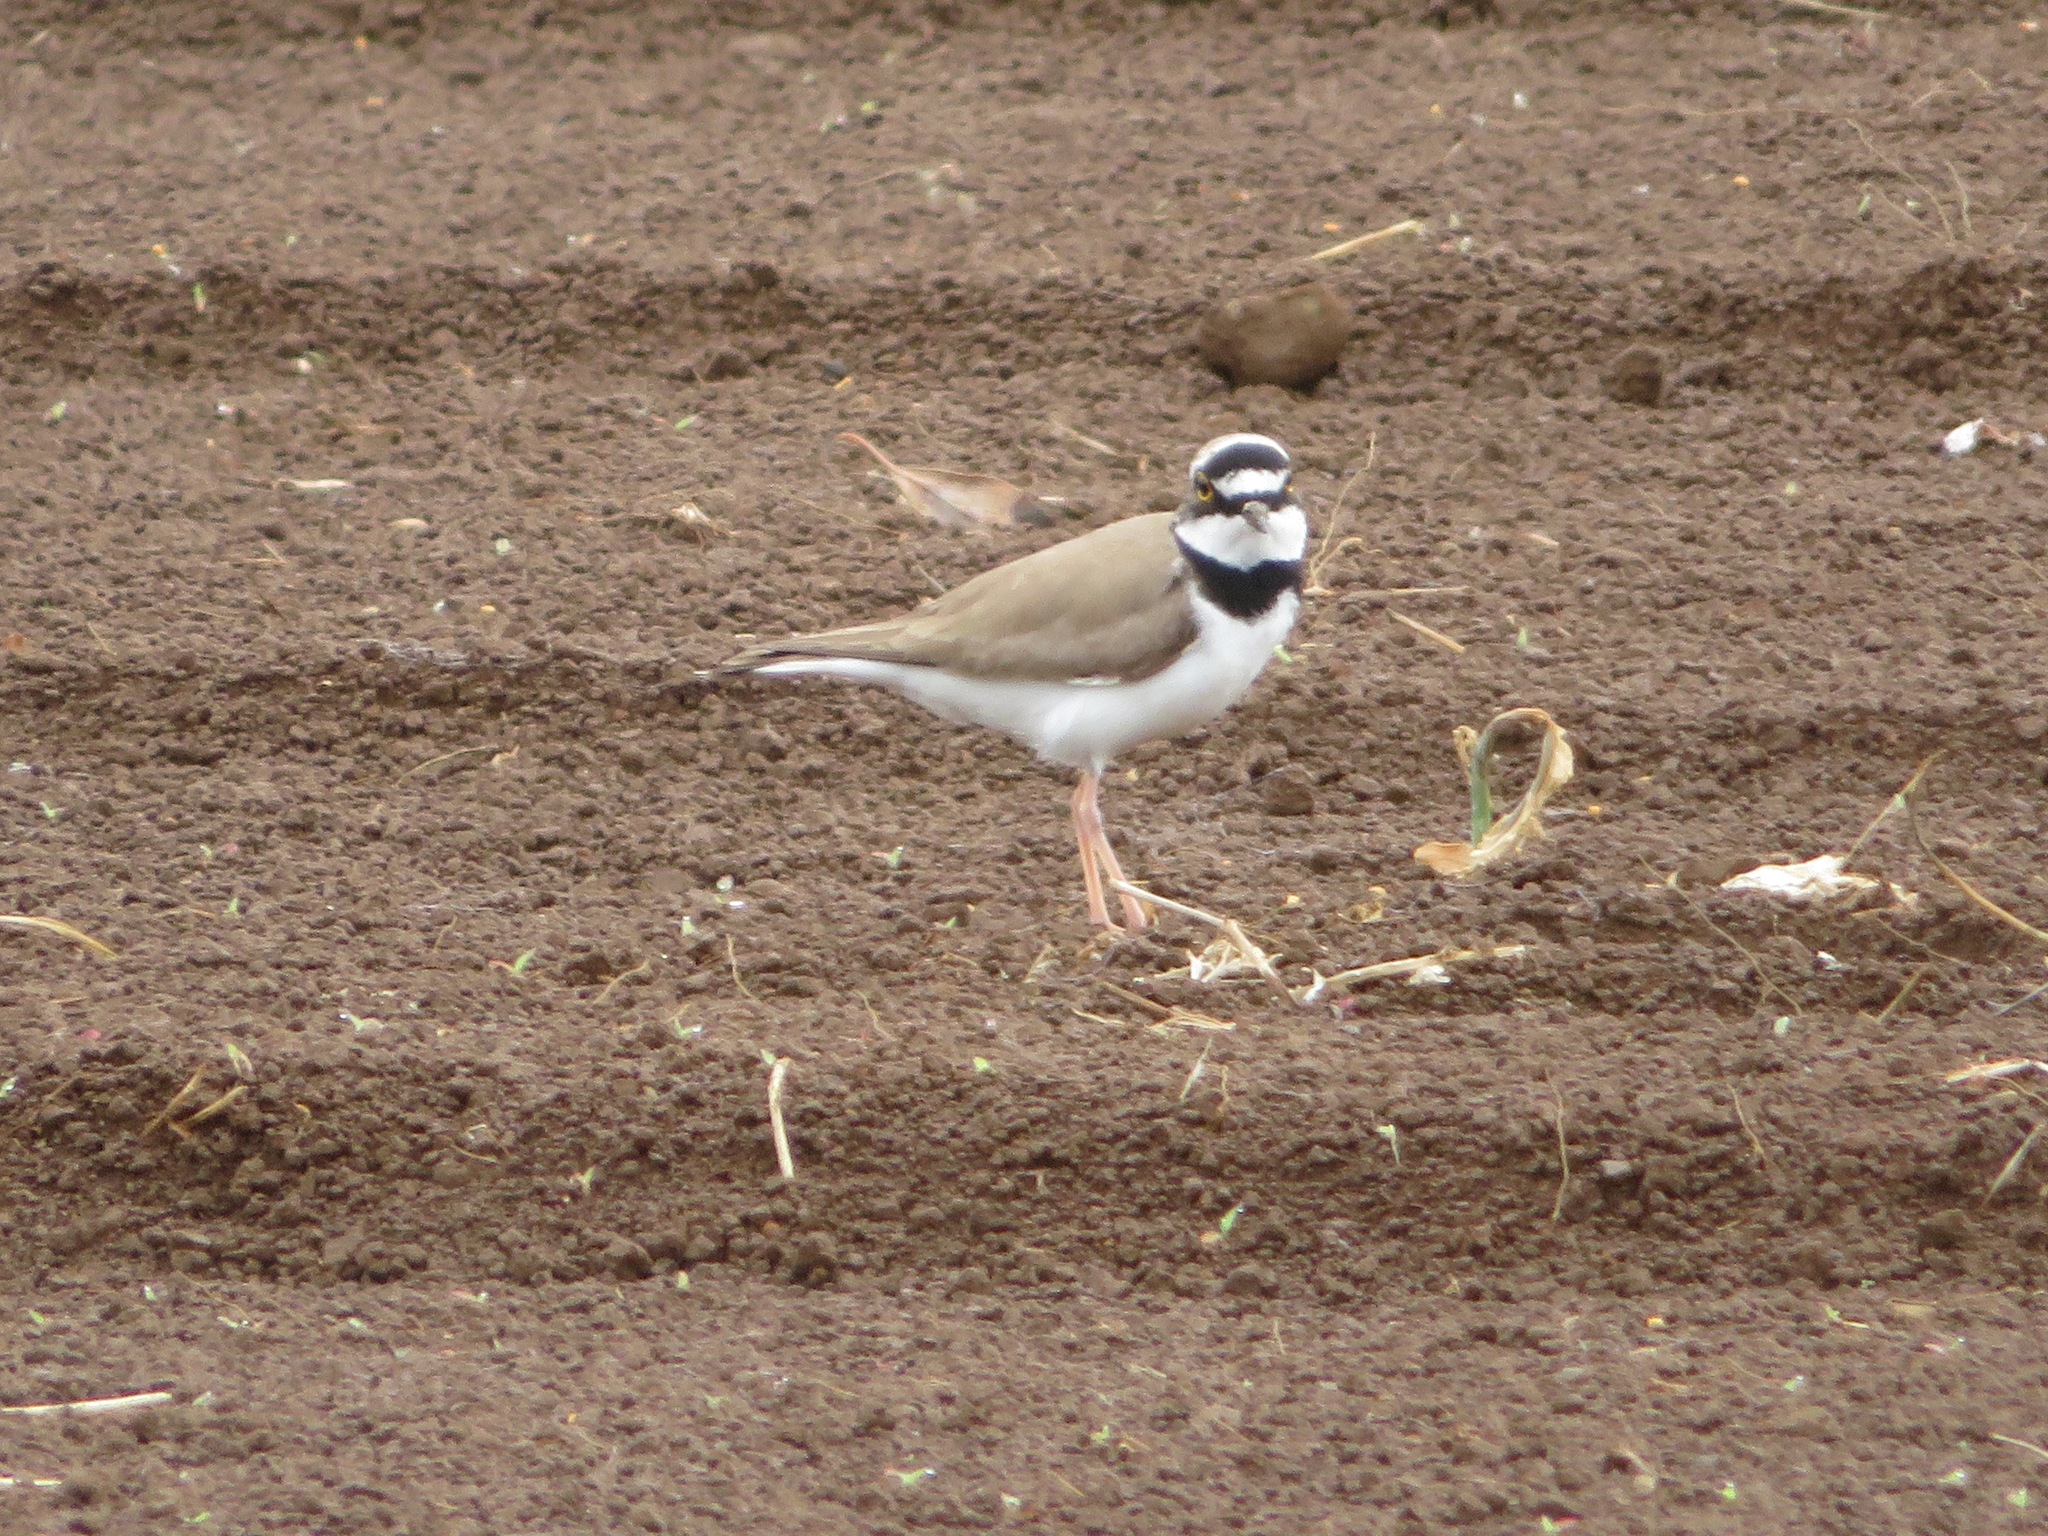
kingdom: Animalia
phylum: Chordata
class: Aves
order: Charadriiformes
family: Charadriidae
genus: Charadrius
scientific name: Charadrius dubius
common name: Little ringed plover
